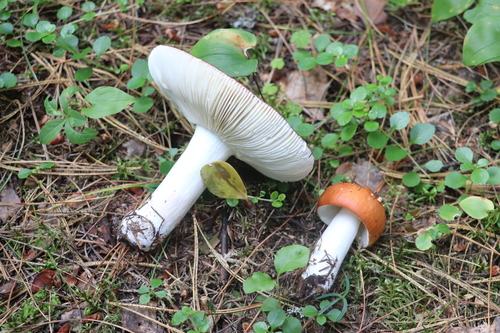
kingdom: Fungi
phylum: Basidiomycota
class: Agaricomycetes
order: Russulales
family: Russulaceae
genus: Russula
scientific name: Russula
